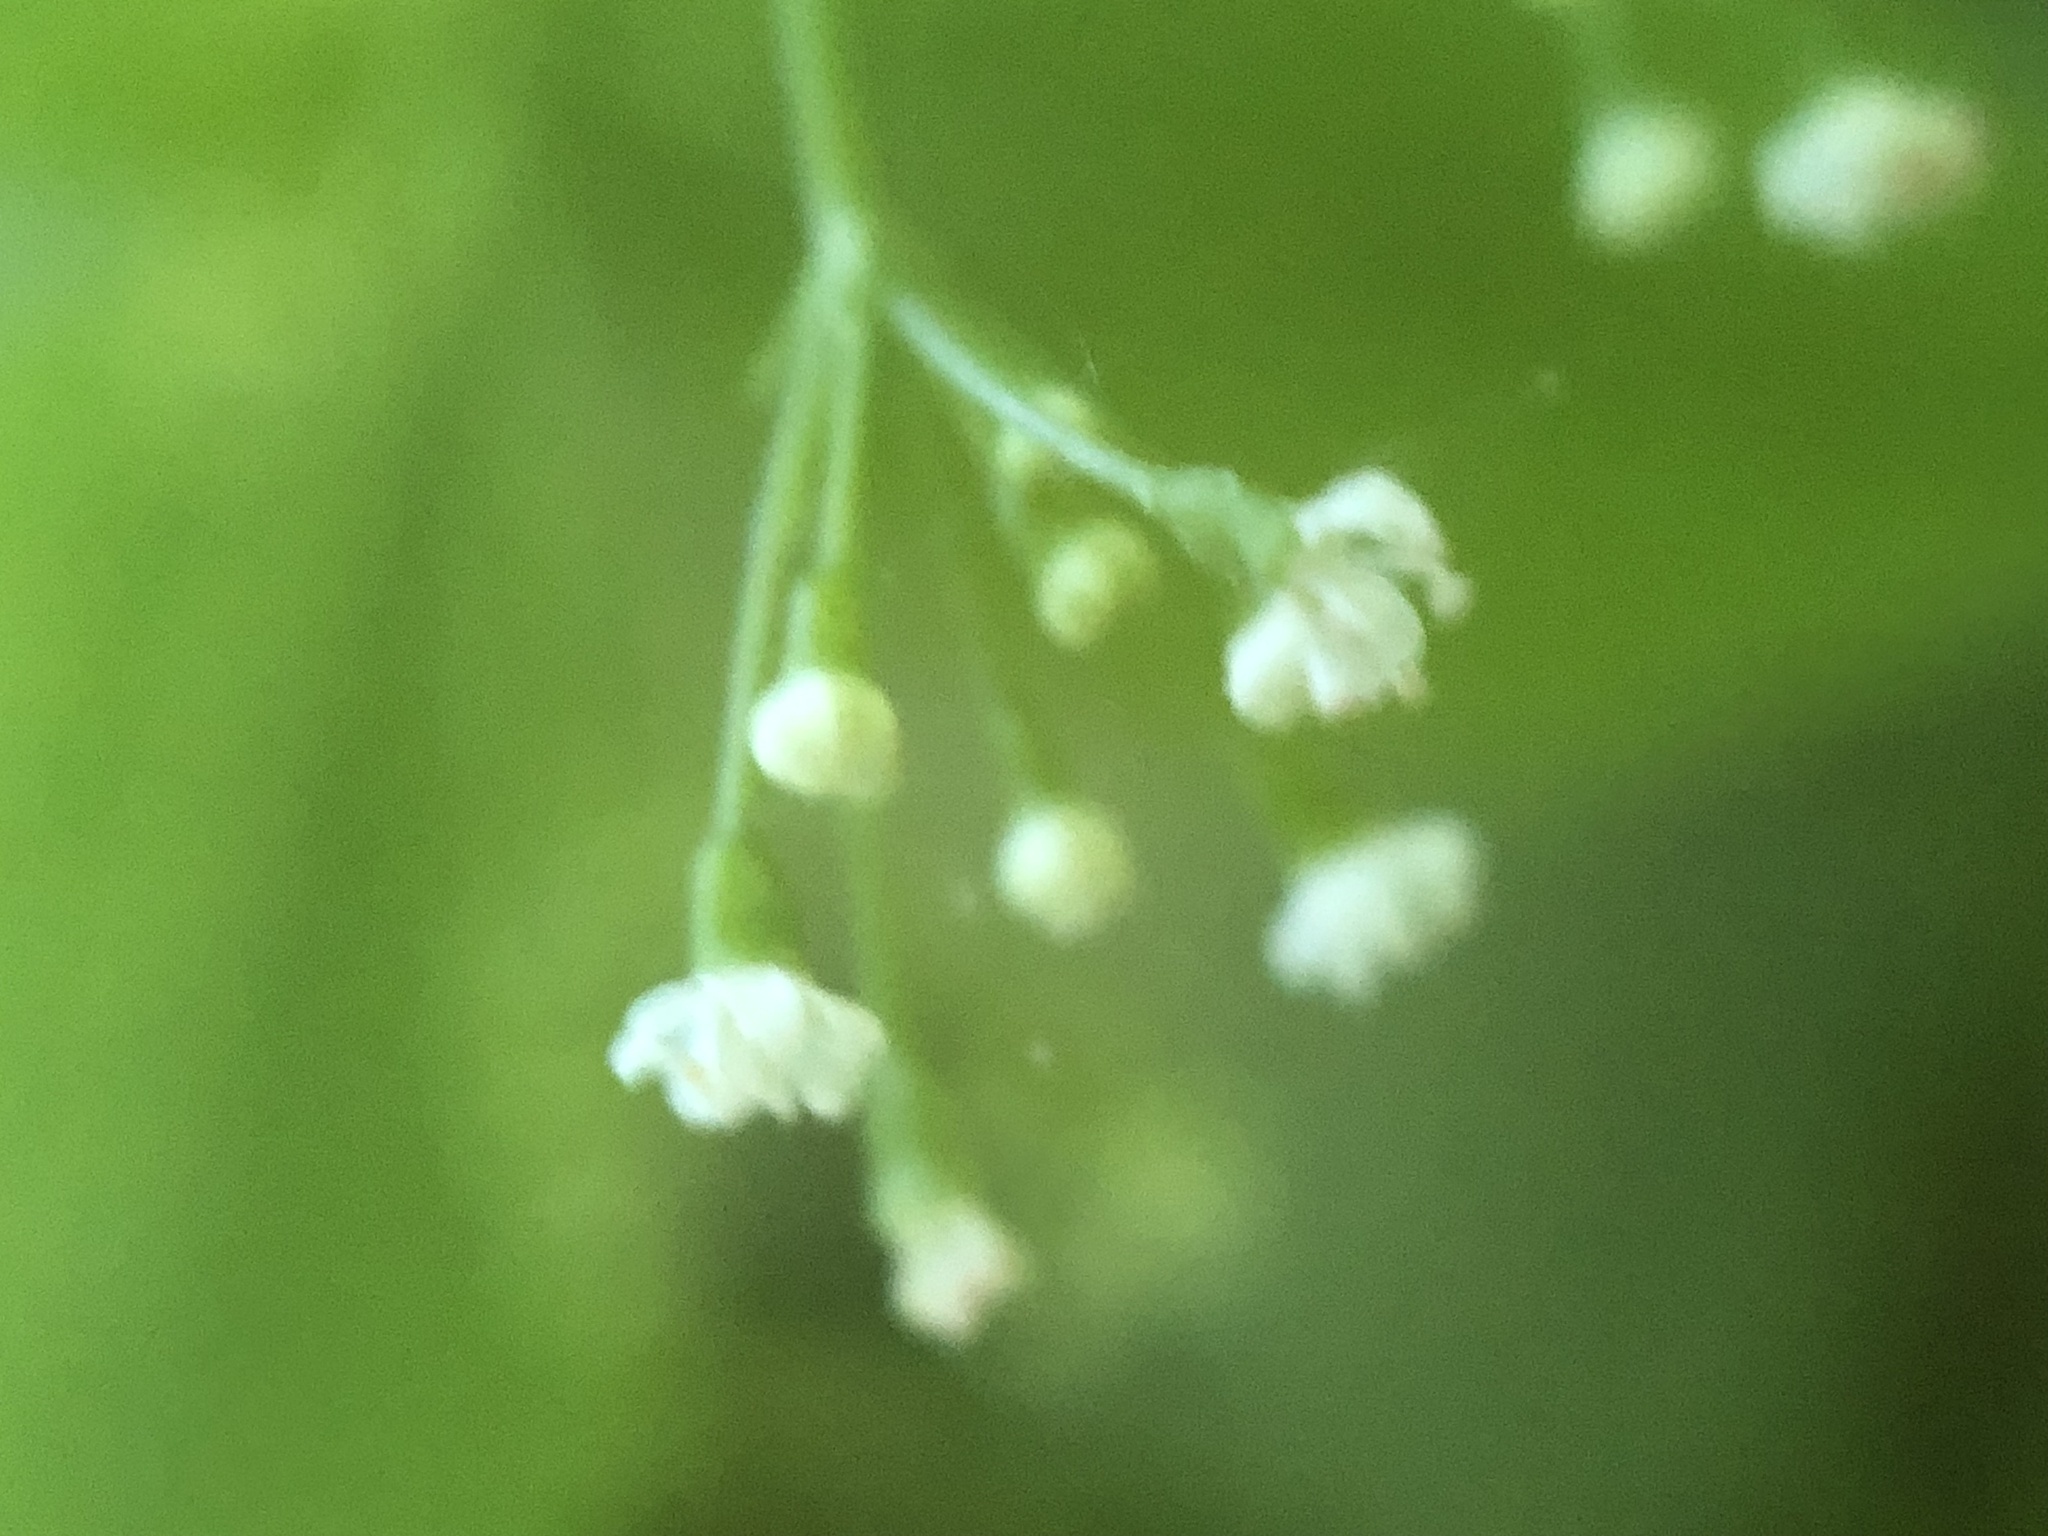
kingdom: Plantae
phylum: Tracheophyta
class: Magnoliopsida
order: Apiales
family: Apiaceae
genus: Cryptotaenia
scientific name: Cryptotaenia canadensis
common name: Honewort
